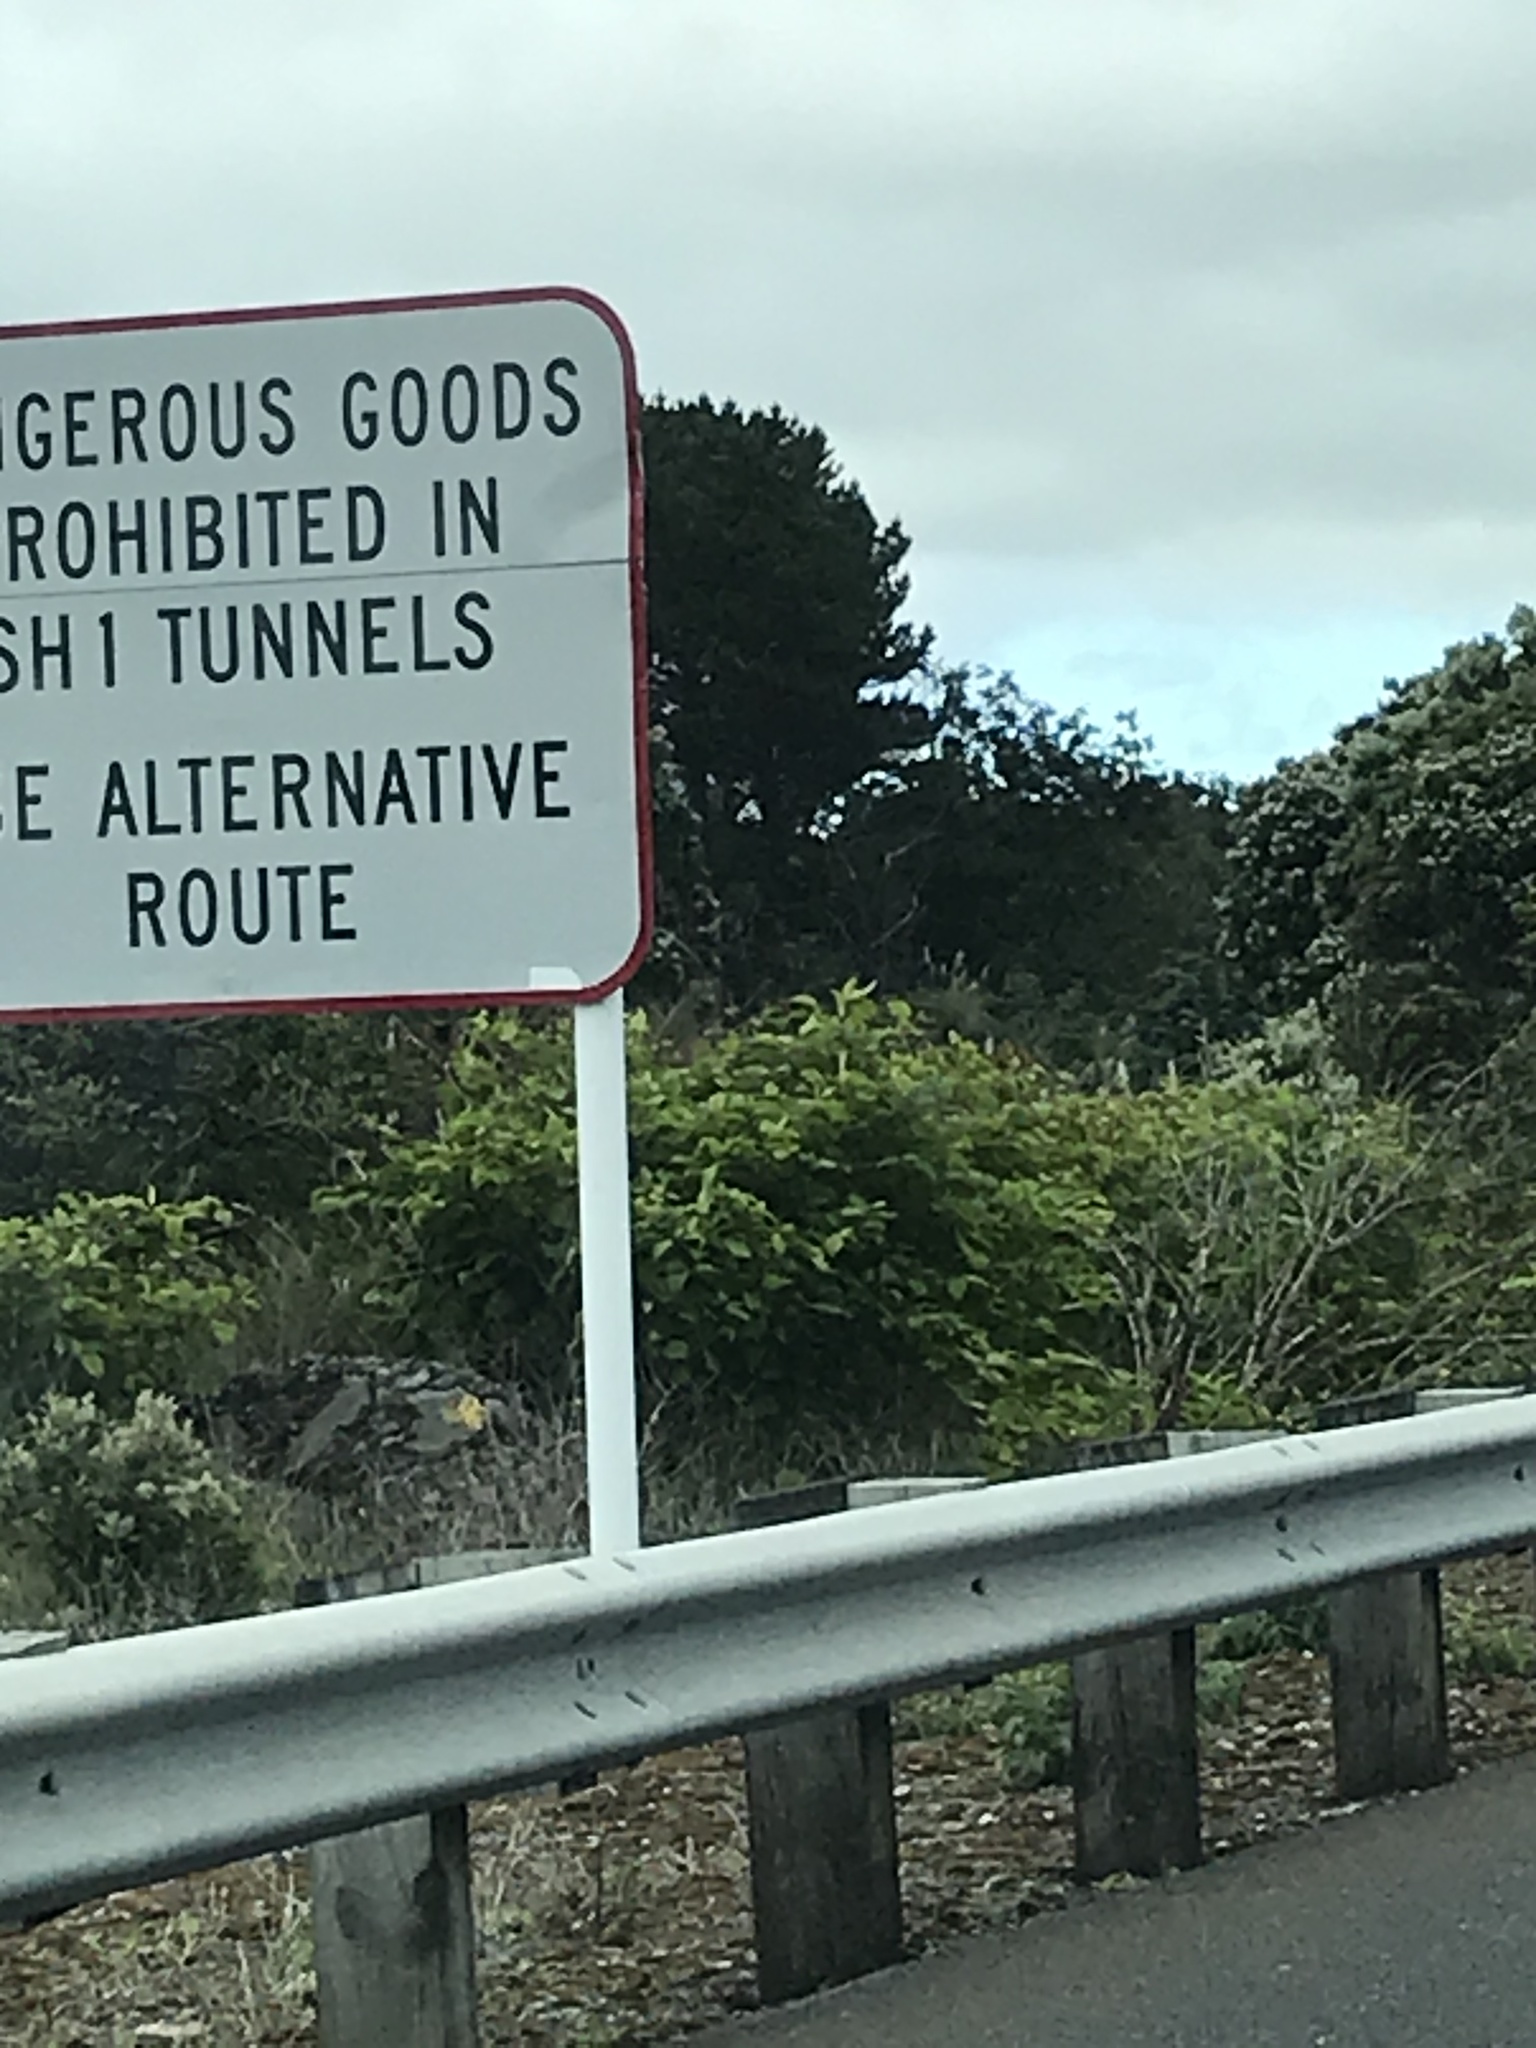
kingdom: Plantae
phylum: Tracheophyta
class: Magnoliopsida
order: Caryophyllales
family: Polygonaceae
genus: Reynoutria
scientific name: Reynoutria japonica
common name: Japanese knotweed
